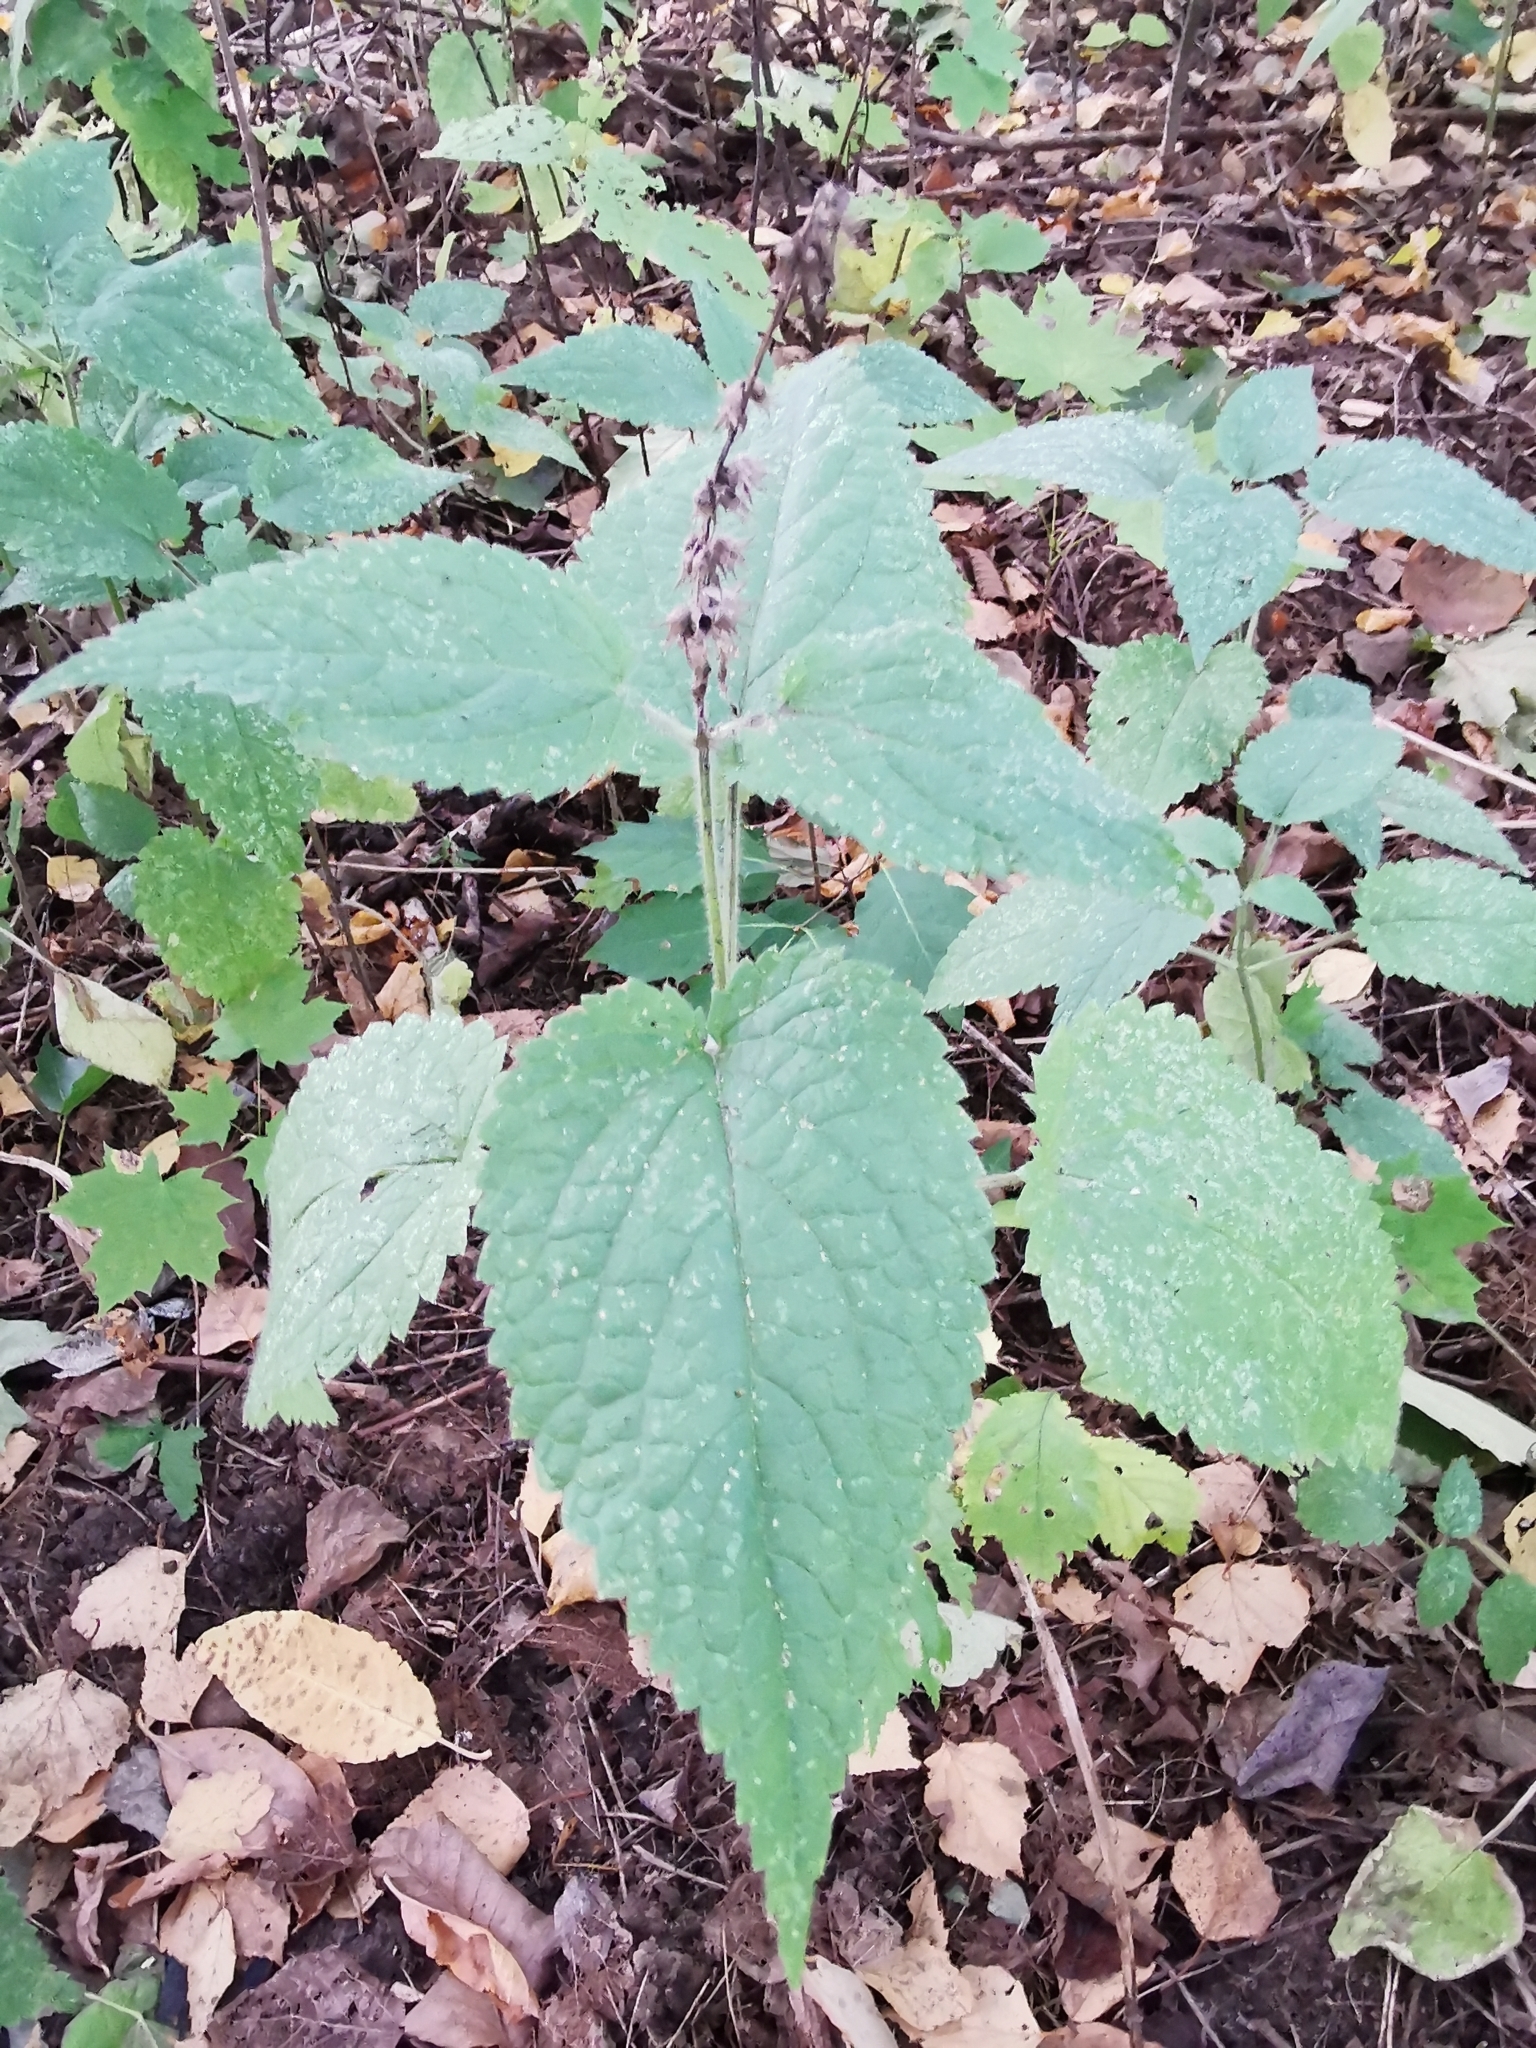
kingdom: Plantae
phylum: Tracheophyta
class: Magnoliopsida
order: Lamiales
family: Lamiaceae
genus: Stachys
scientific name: Stachys sylvatica
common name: Hedge woundwort
